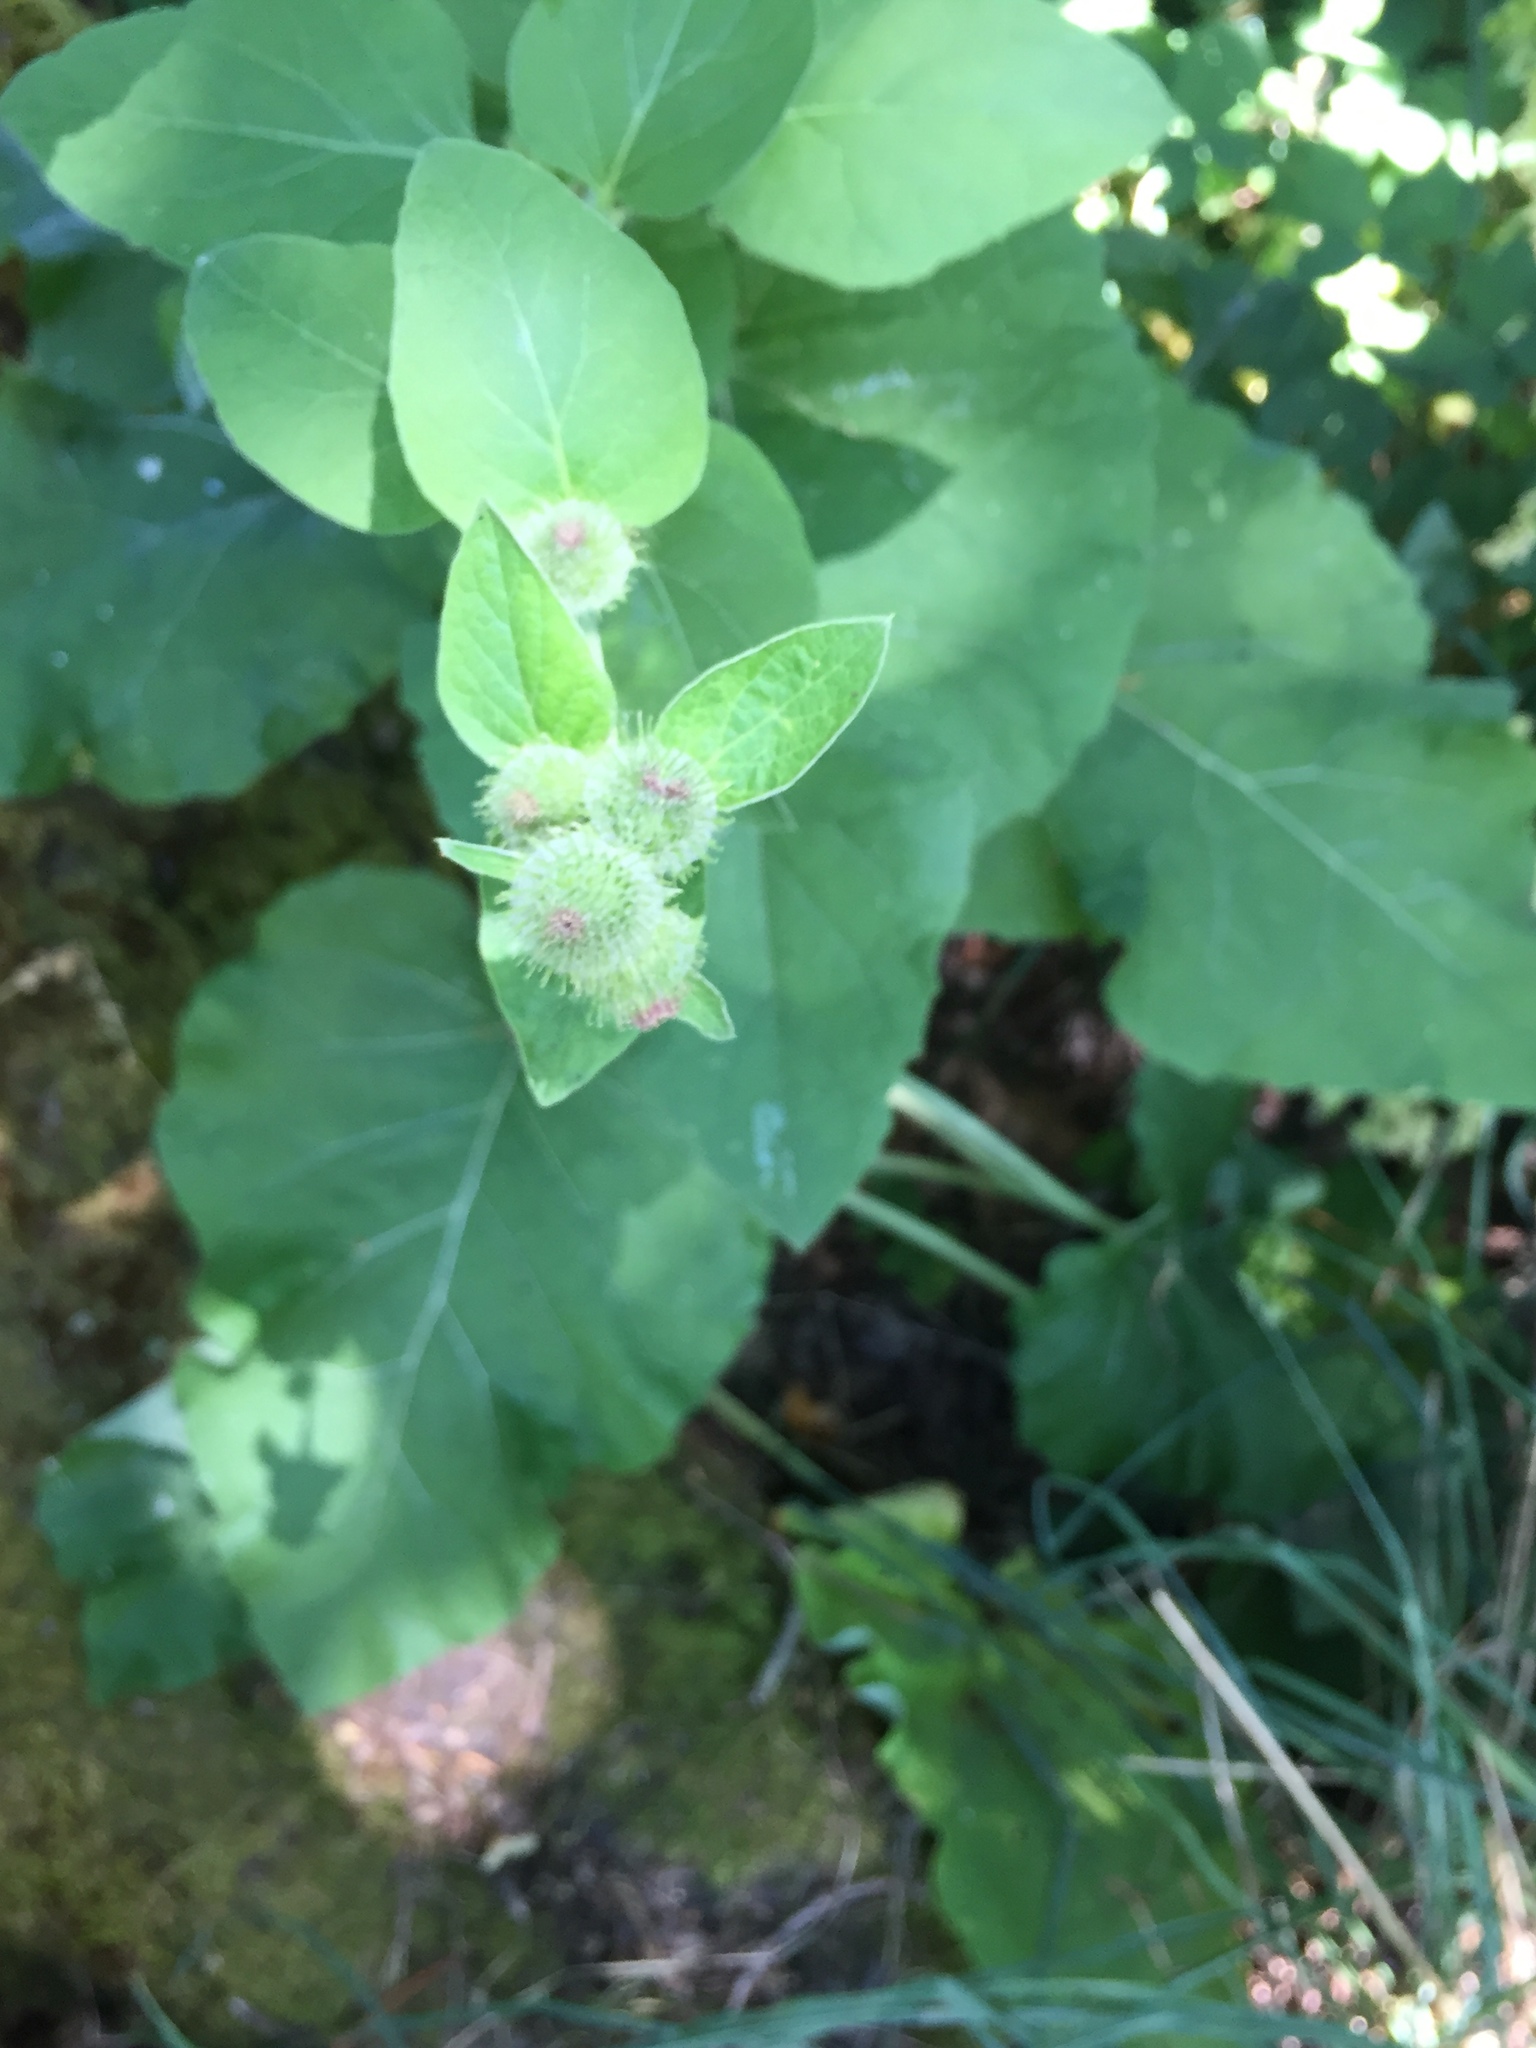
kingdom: Plantae
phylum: Tracheophyta
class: Magnoliopsida
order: Asterales
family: Asteraceae
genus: Arctium
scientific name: Arctium minus
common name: Lesser burdock
